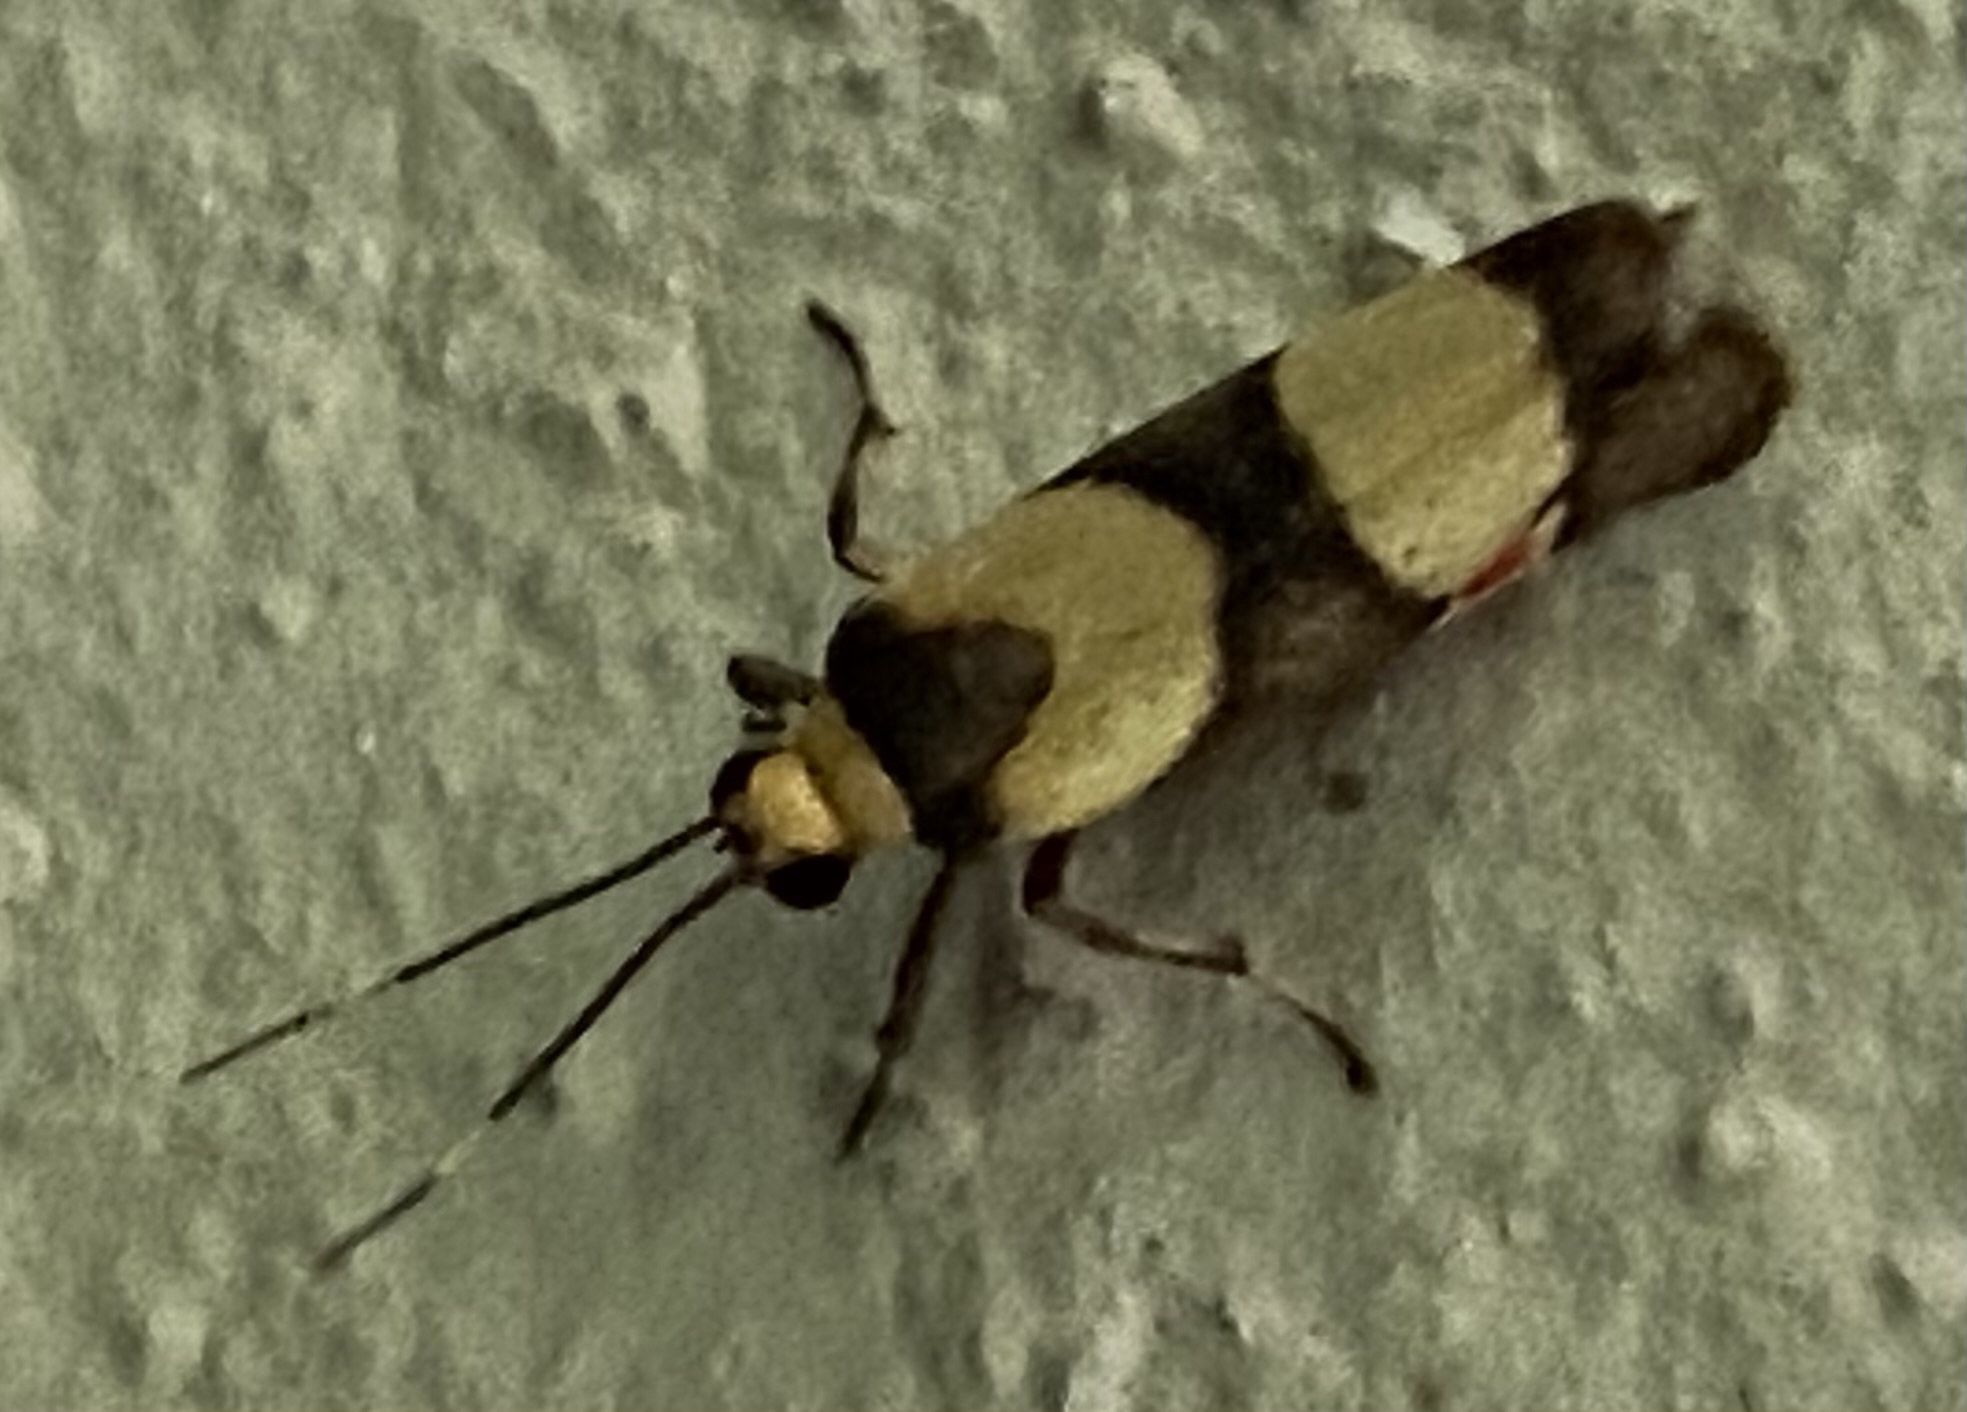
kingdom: Animalia
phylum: Arthropoda
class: Insecta
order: Lepidoptera
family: Erebidae
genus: Nodozana
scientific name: Nodozana rhodosticta
